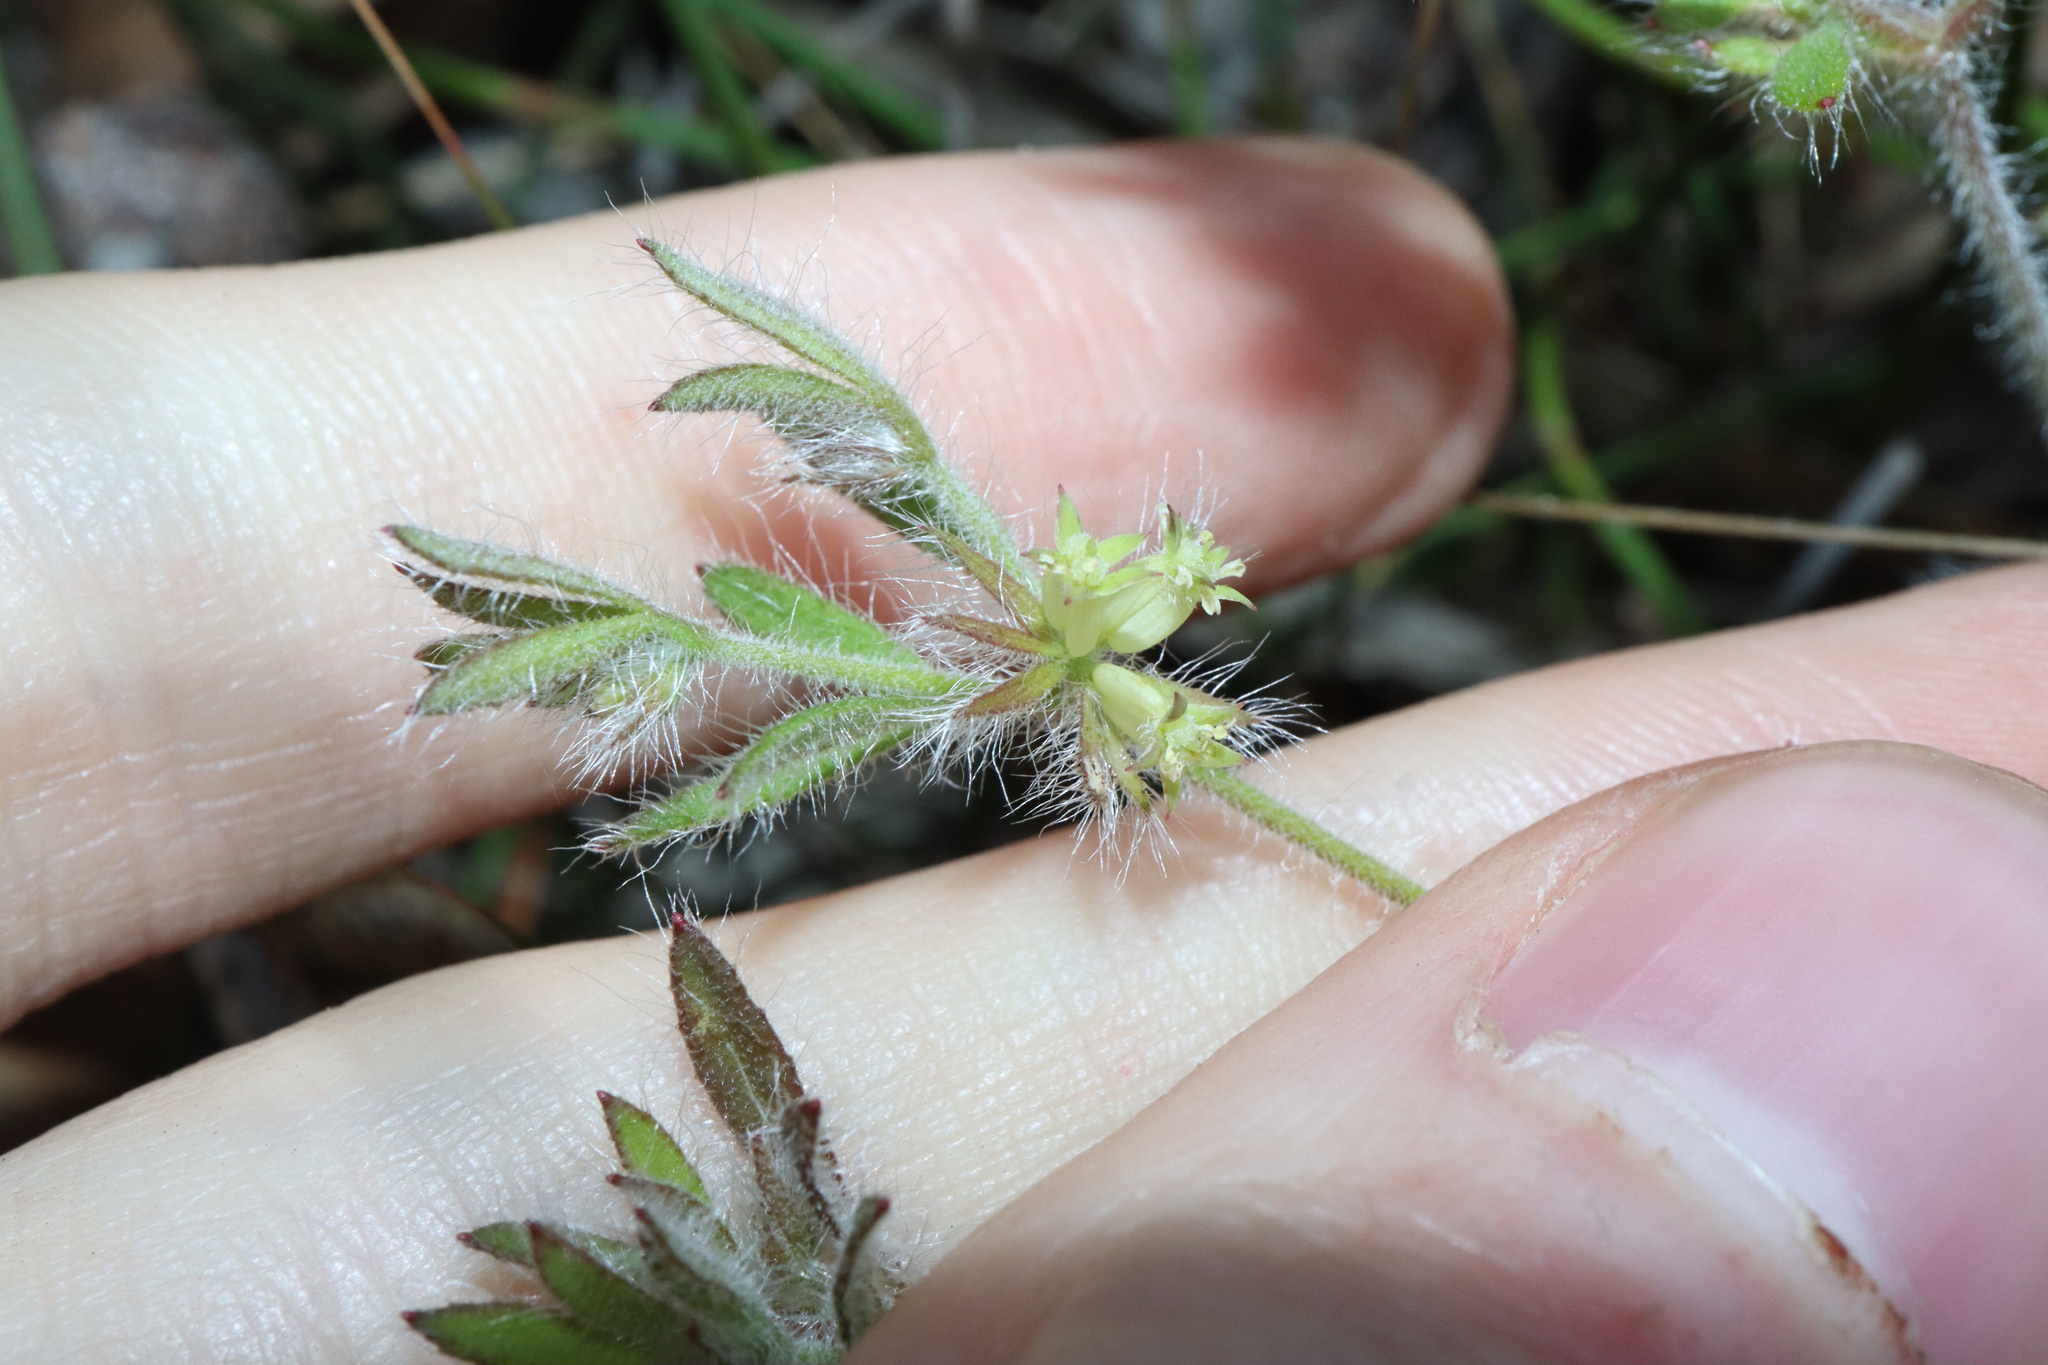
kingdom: Plantae
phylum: Tracheophyta
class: Magnoliopsida
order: Apiales
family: Apiaceae
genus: Xanthosia
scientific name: Xanthosia huegelii
